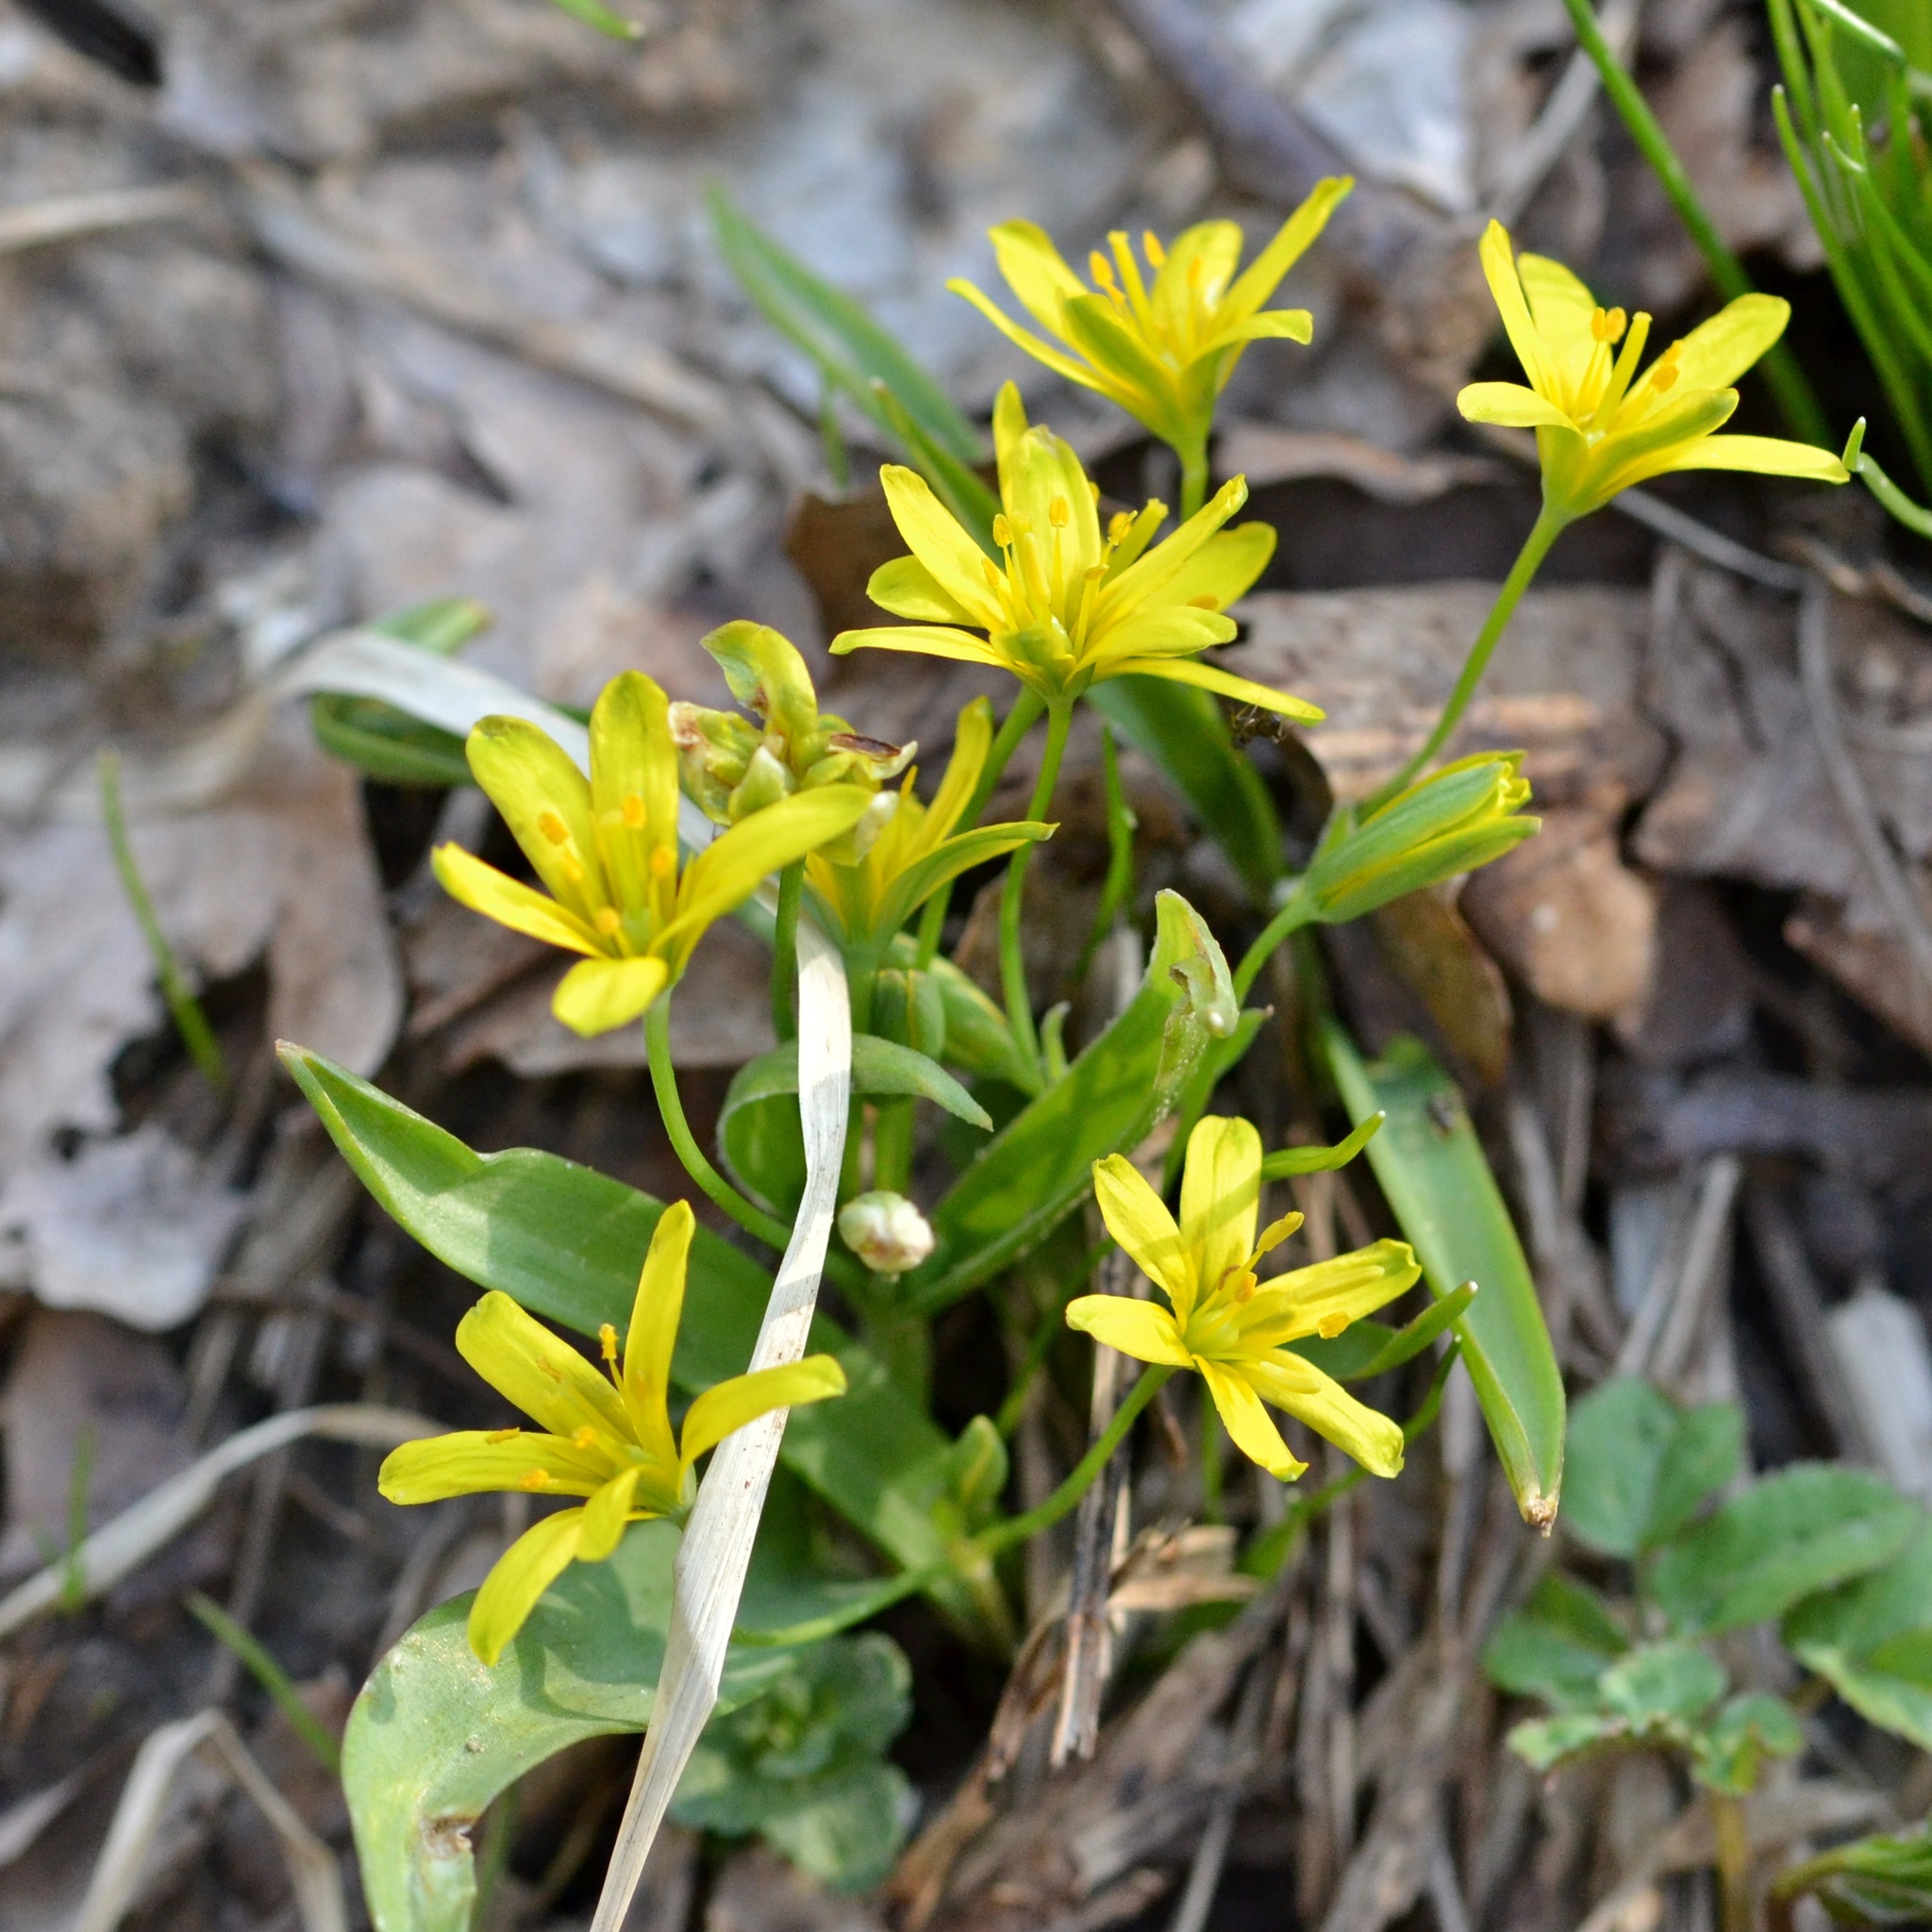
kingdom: Plantae
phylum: Tracheophyta
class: Liliopsida
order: Liliales
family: Liliaceae
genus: Gagea
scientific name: Gagea lutea
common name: Yellow star-of-bethlehem
